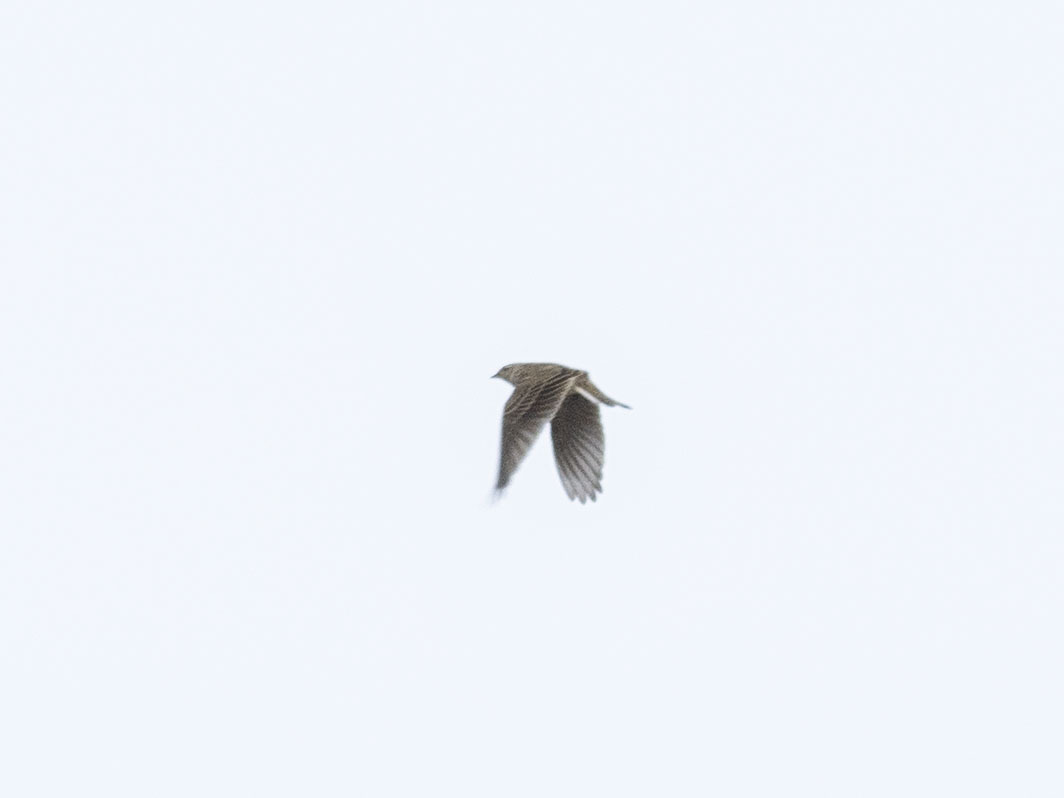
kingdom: Animalia
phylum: Chordata
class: Aves
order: Passeriformes
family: Alaudidae
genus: Alauda
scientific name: Alauda arvensis
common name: Eurasian skylark
